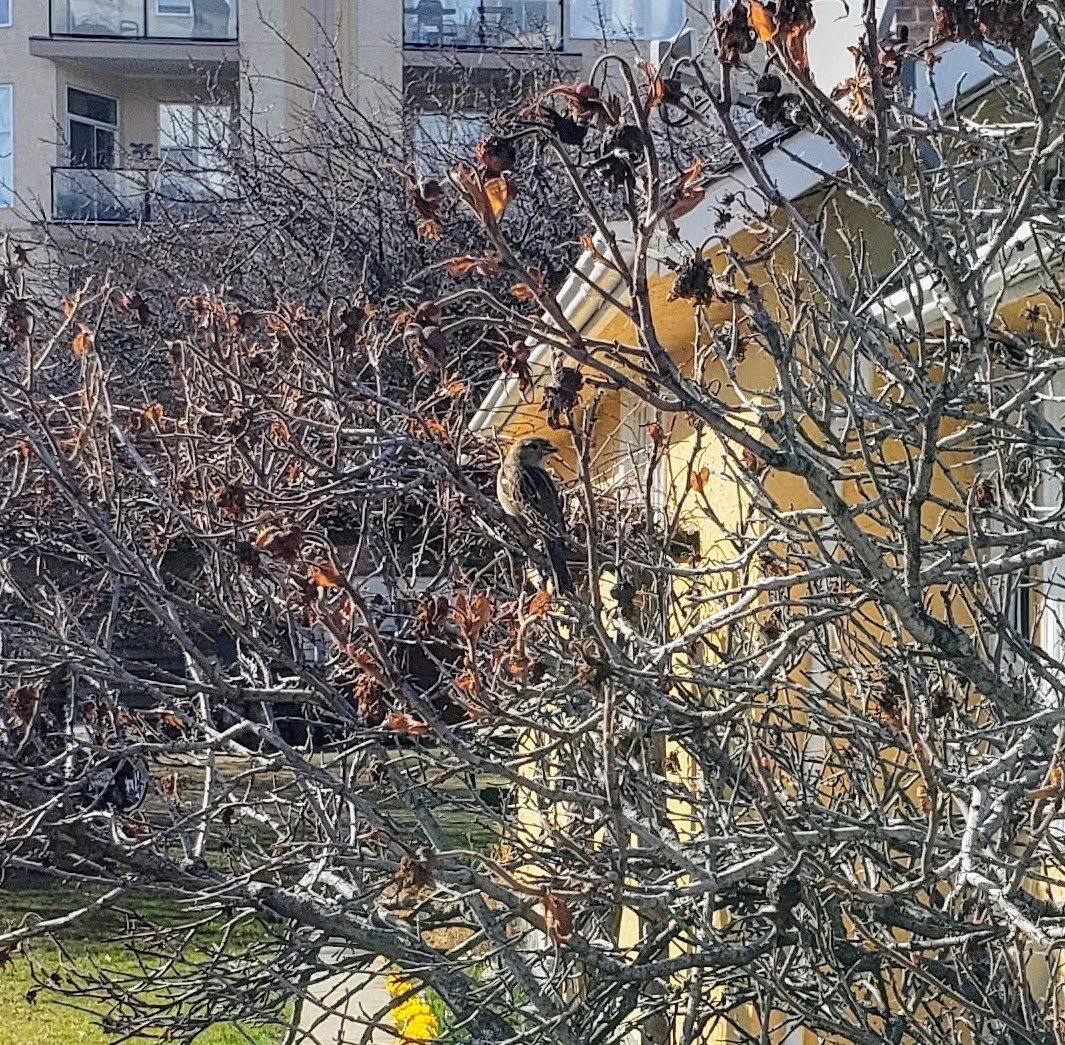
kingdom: Animalia
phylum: Chordata
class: Aves
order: Passeriformes
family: Passeridae
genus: Passer
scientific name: Passer domesticus
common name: House sparrow
